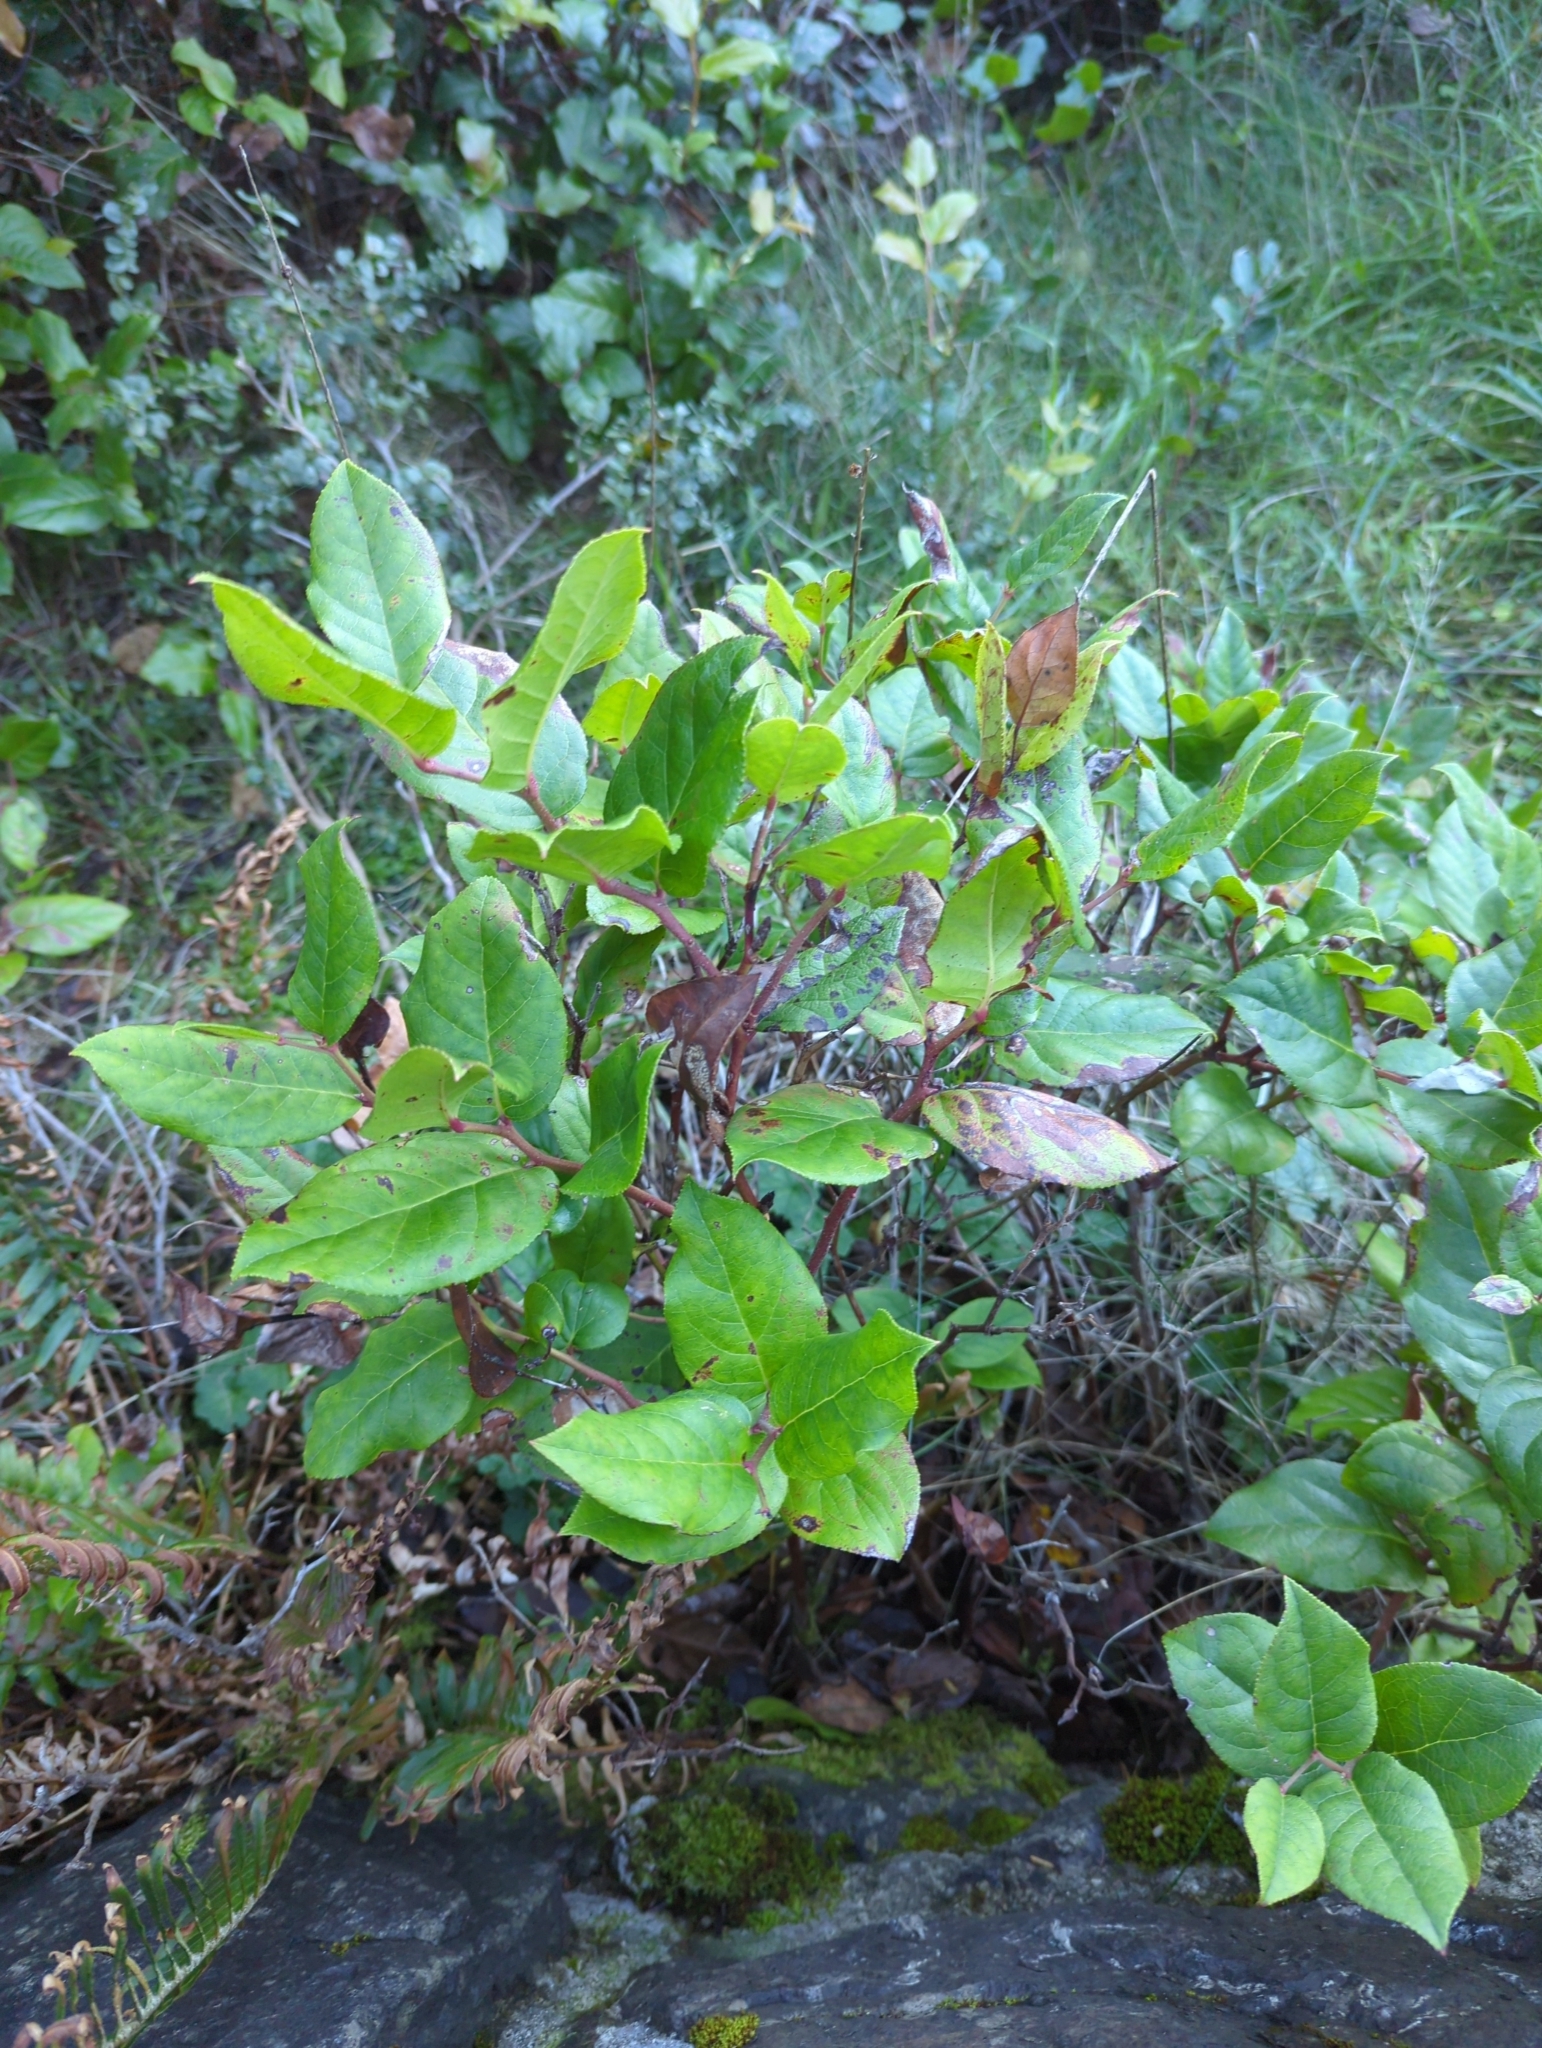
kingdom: Plantae
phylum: Tracheophyta
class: Magnoliopsida
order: Ericales
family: Ericaceae
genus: Gaultheria
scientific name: Gaultheria shallon
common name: Shallon
